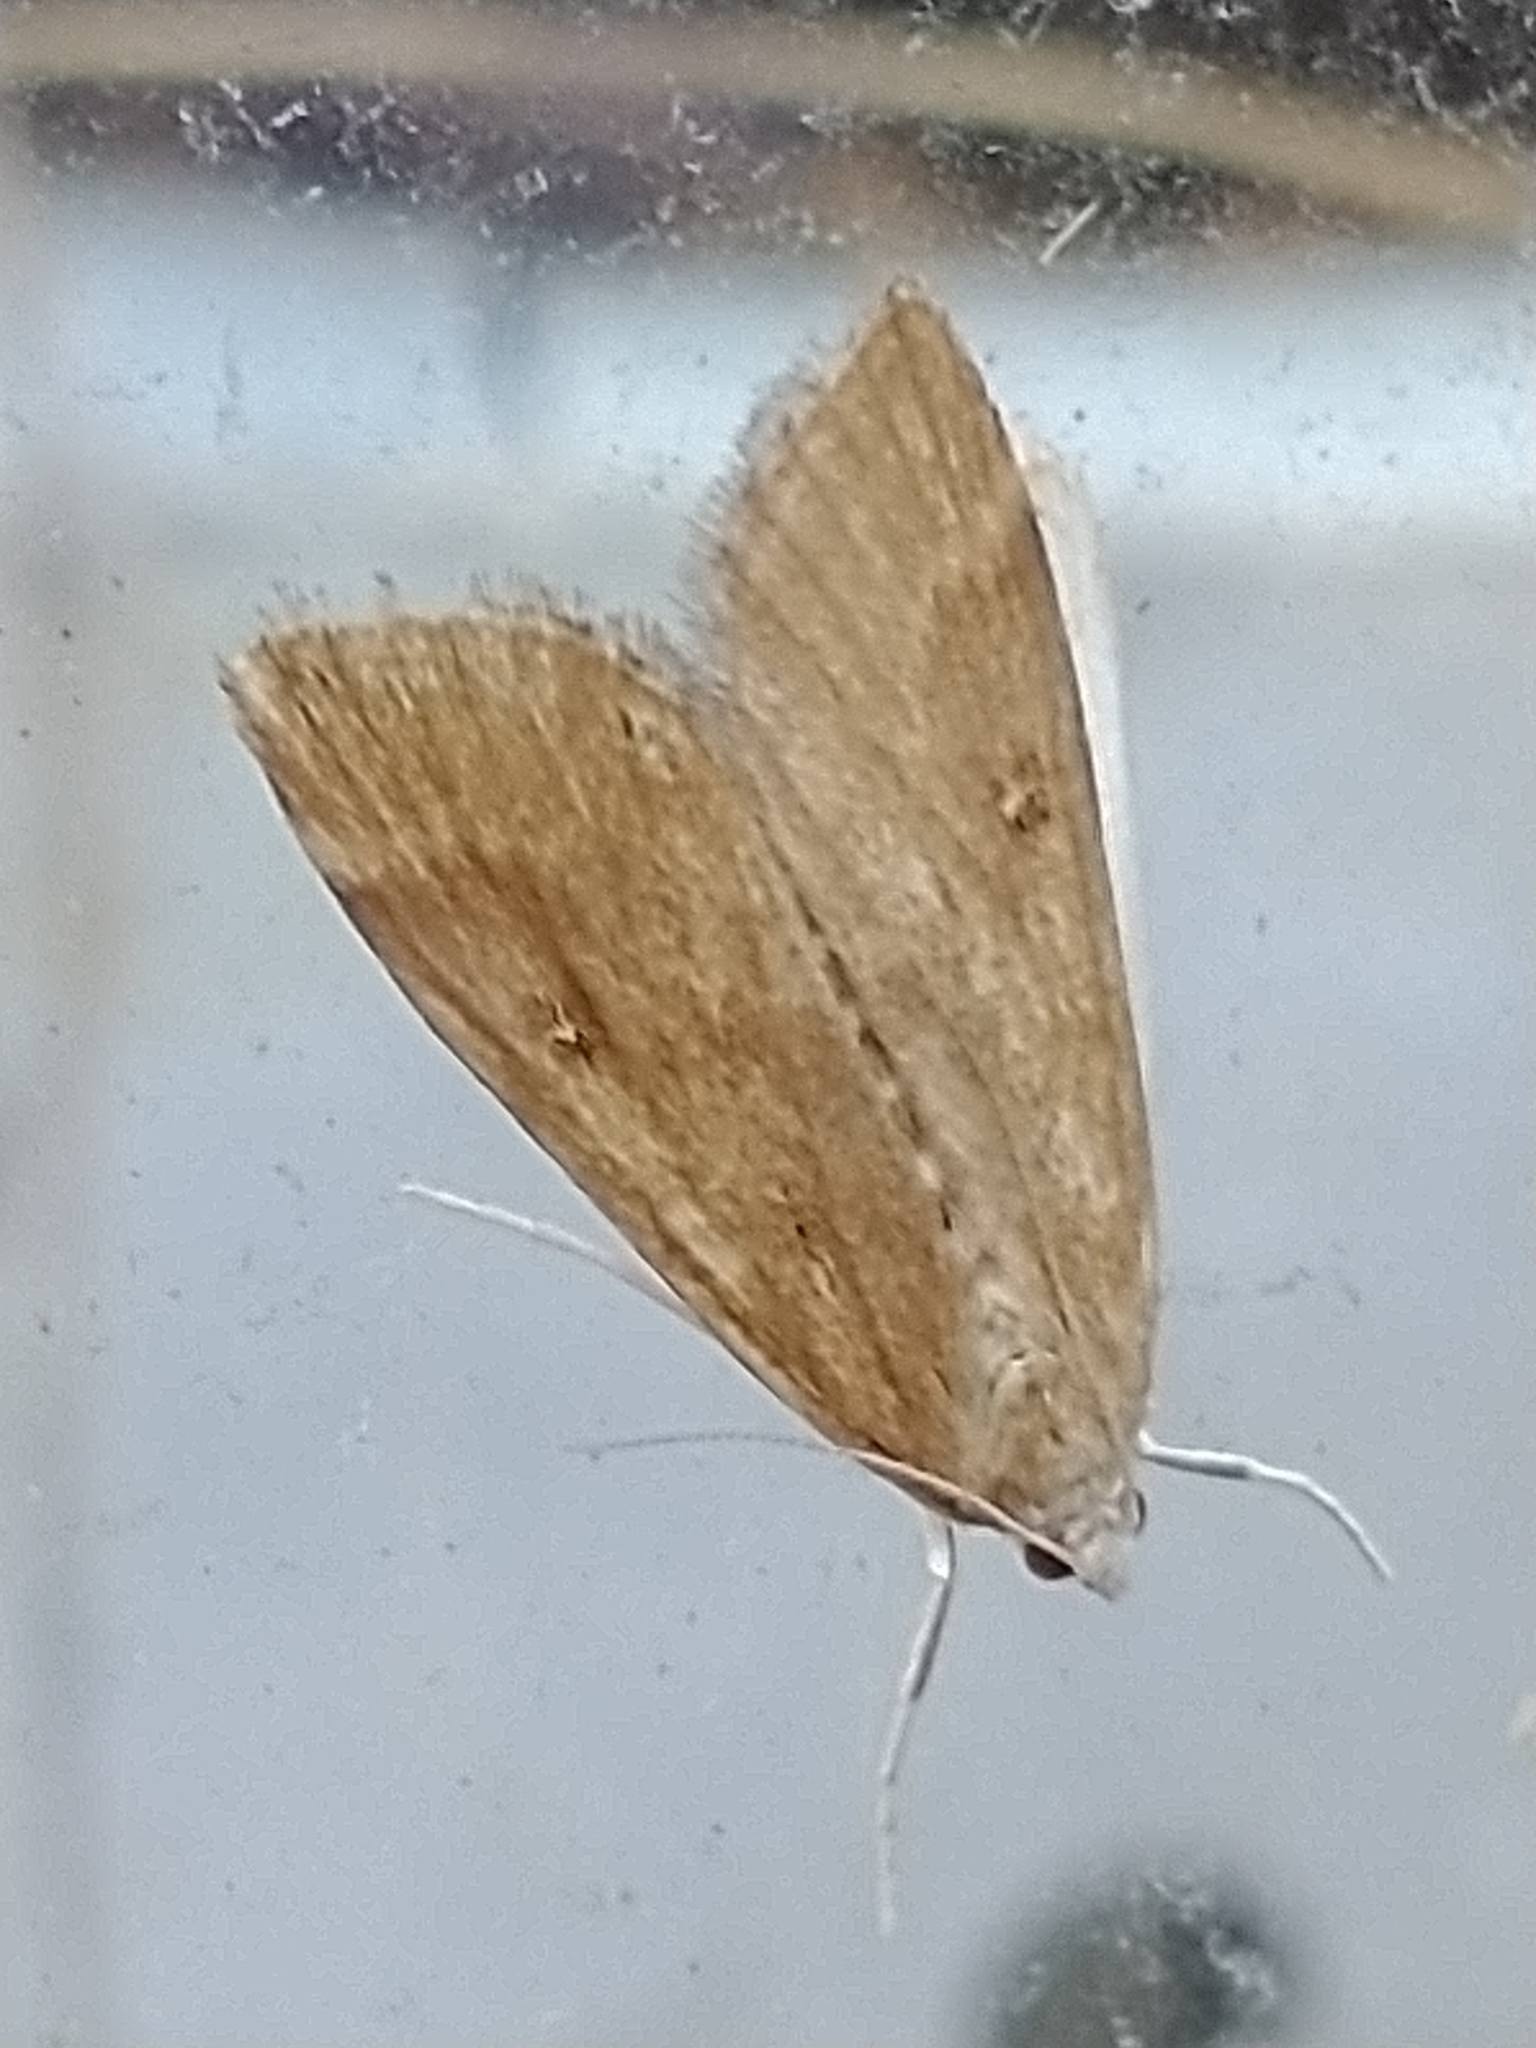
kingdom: Animalia
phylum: Arthropoda
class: Insecta
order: Lepidoptera
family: Crambidae
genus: Parapoynx
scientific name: Parapoynx stratiotata
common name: Ringed china-mark
